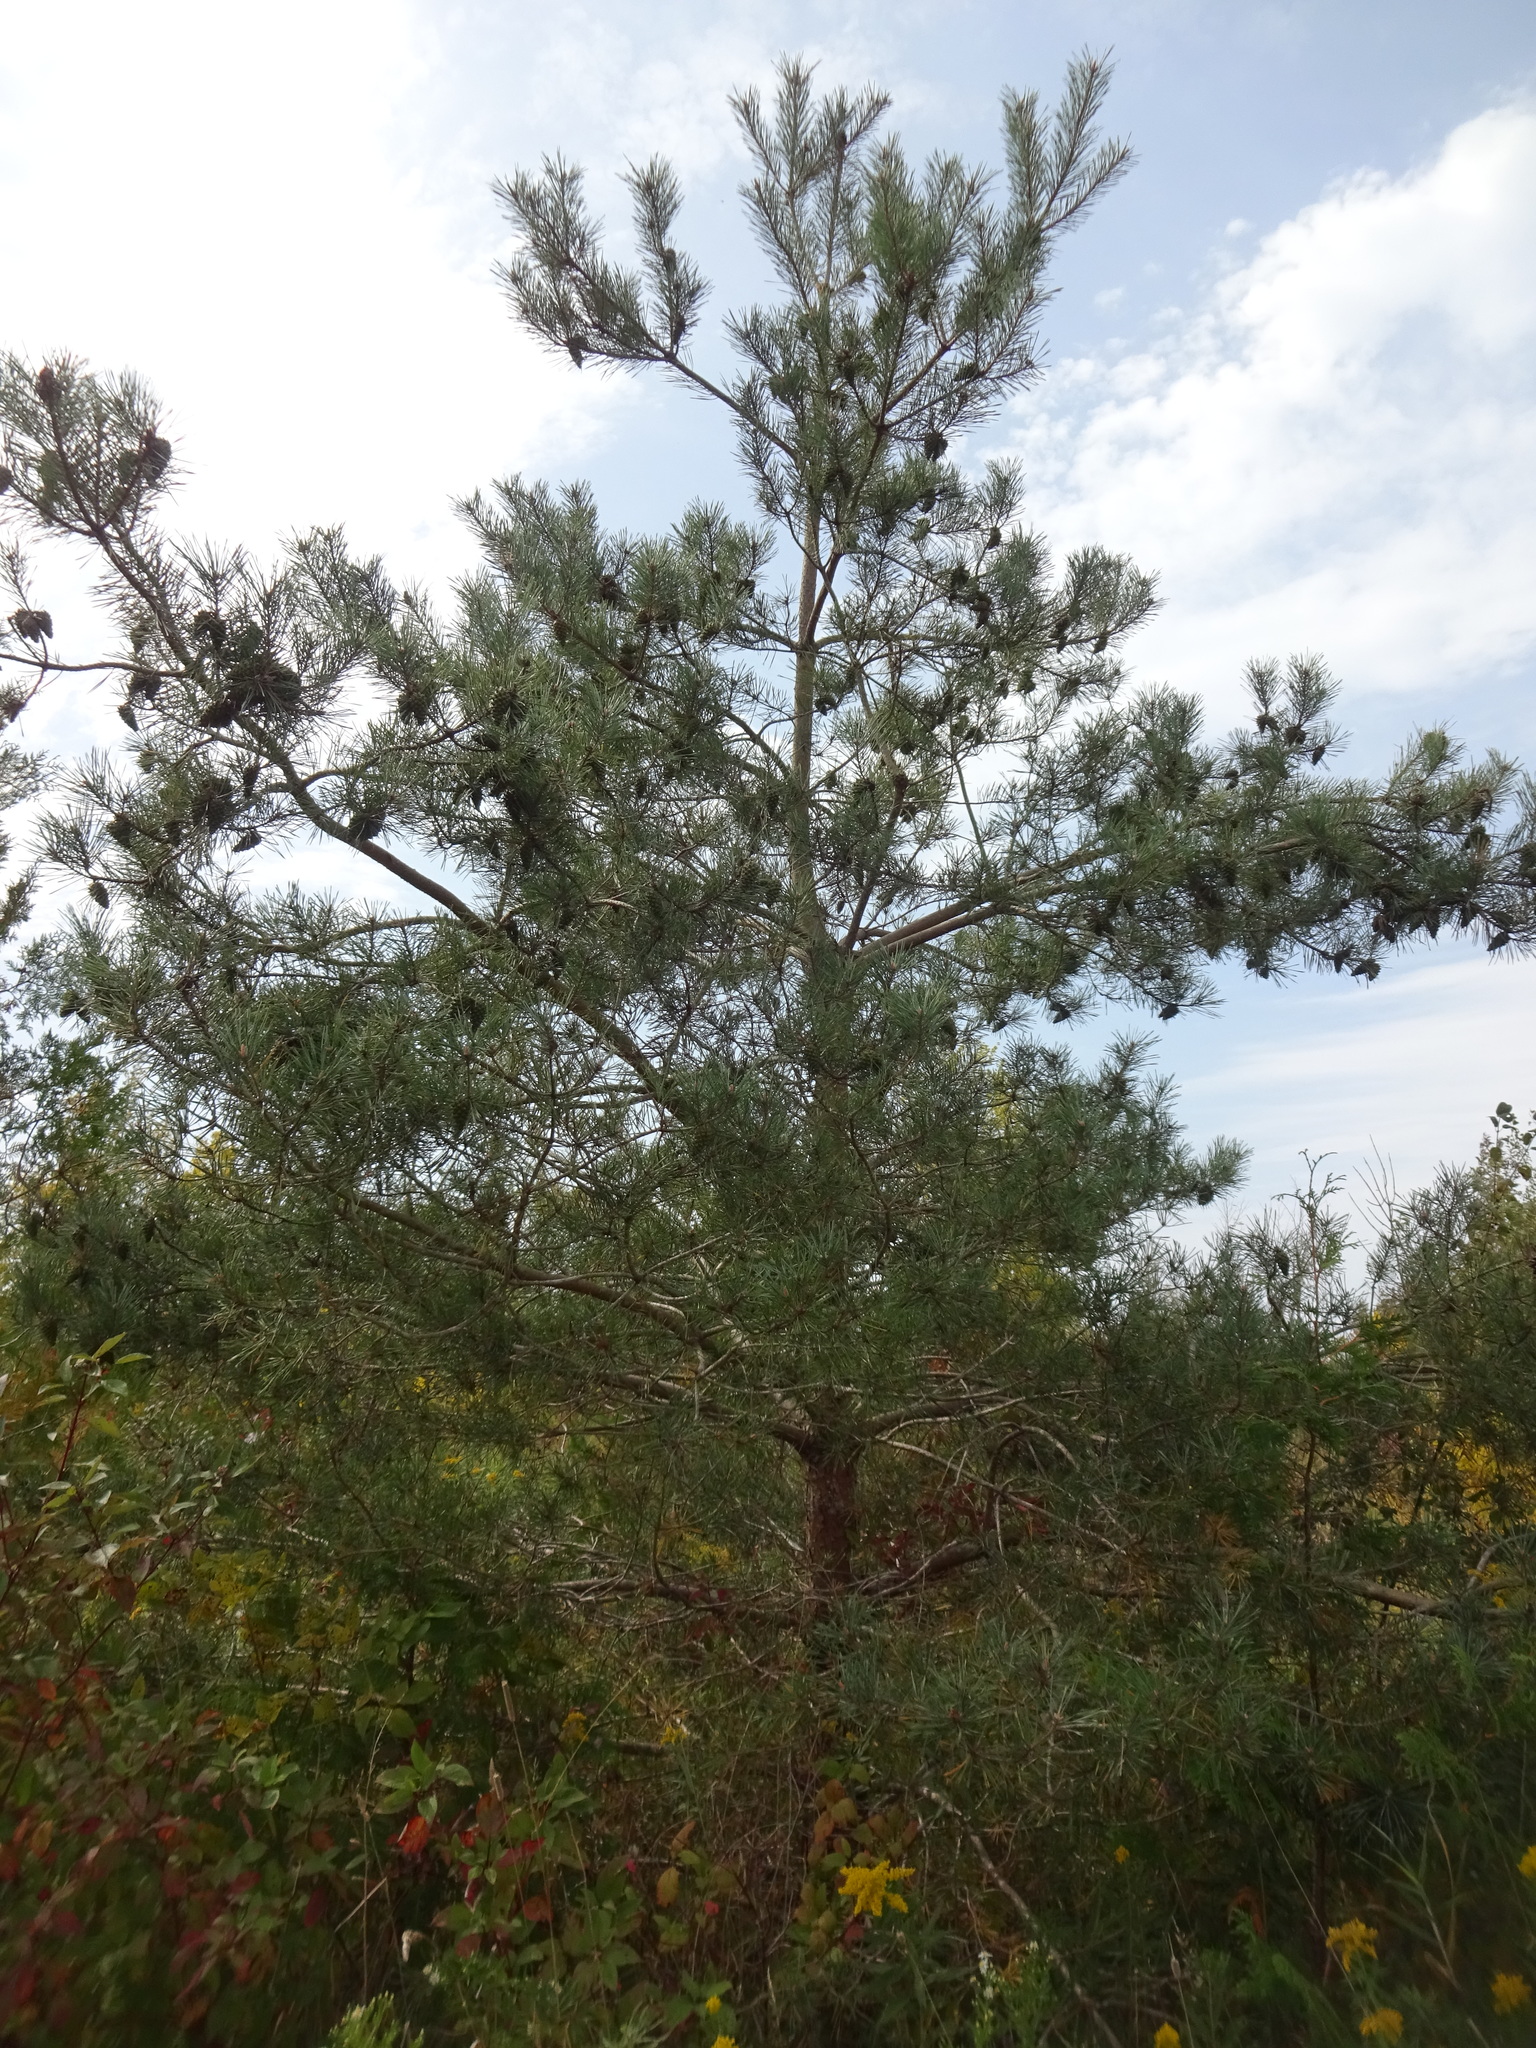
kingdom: Plantae
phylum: Tracheophyta
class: Pinopsida
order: Pinales
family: Pinaceae
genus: Pinus
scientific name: Pinus sylvestris
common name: Scots pine
